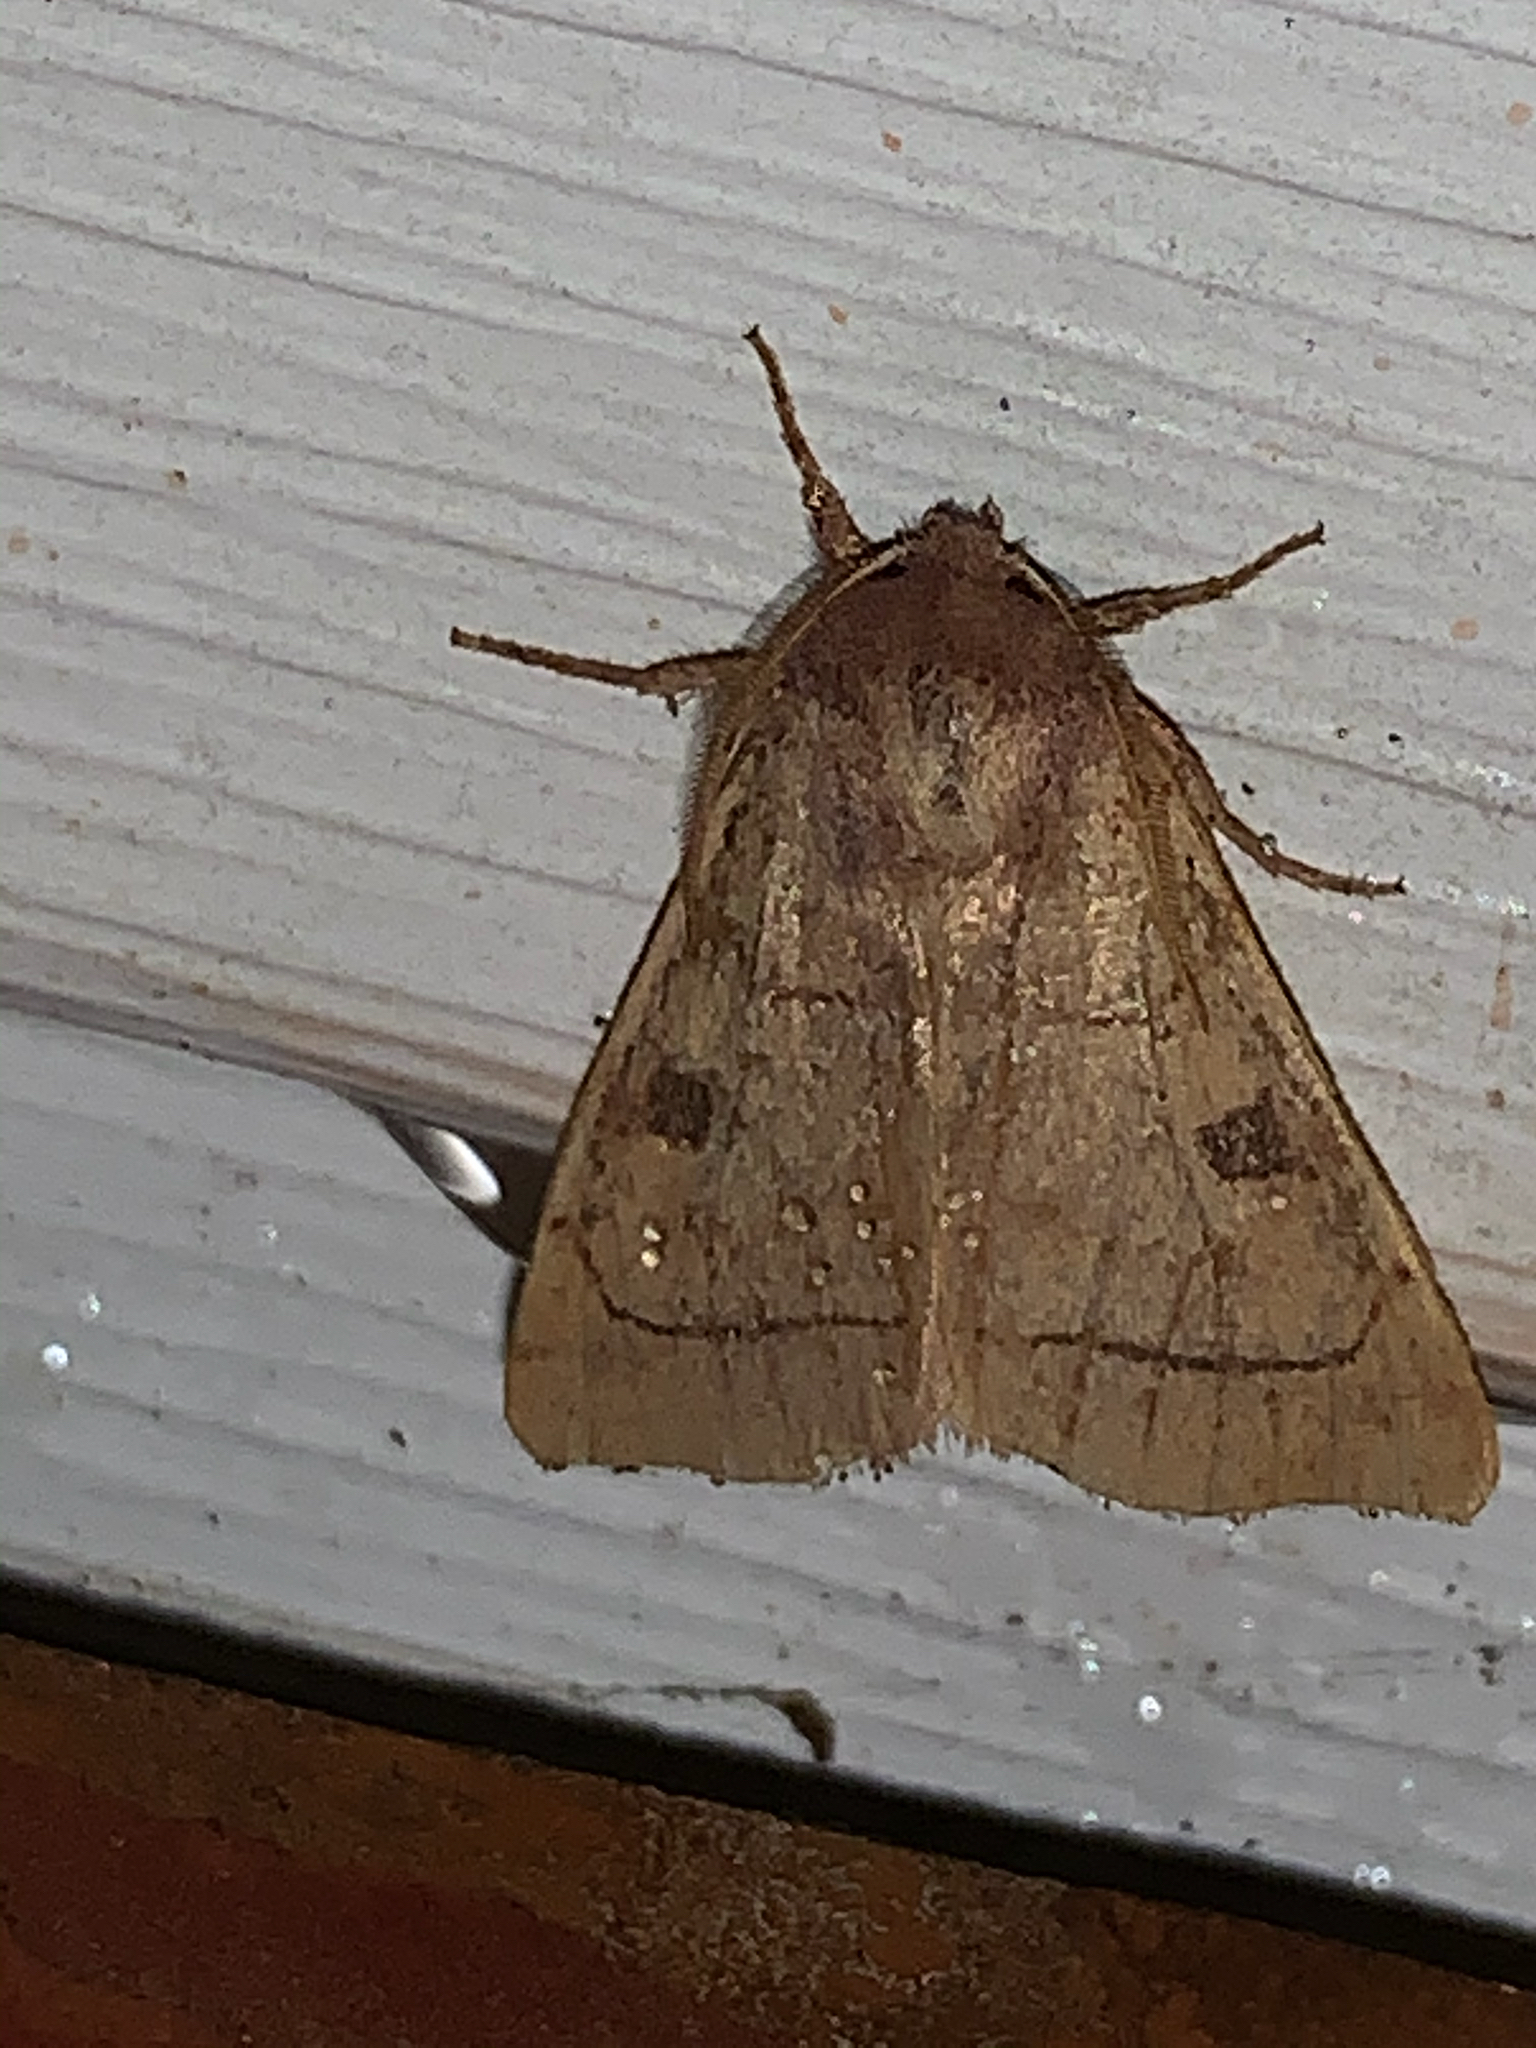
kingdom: Animalia
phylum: Arthropoda
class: Insecta
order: Lepidoptera
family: Noctuidae
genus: Choephora
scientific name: Choephora fungorum
